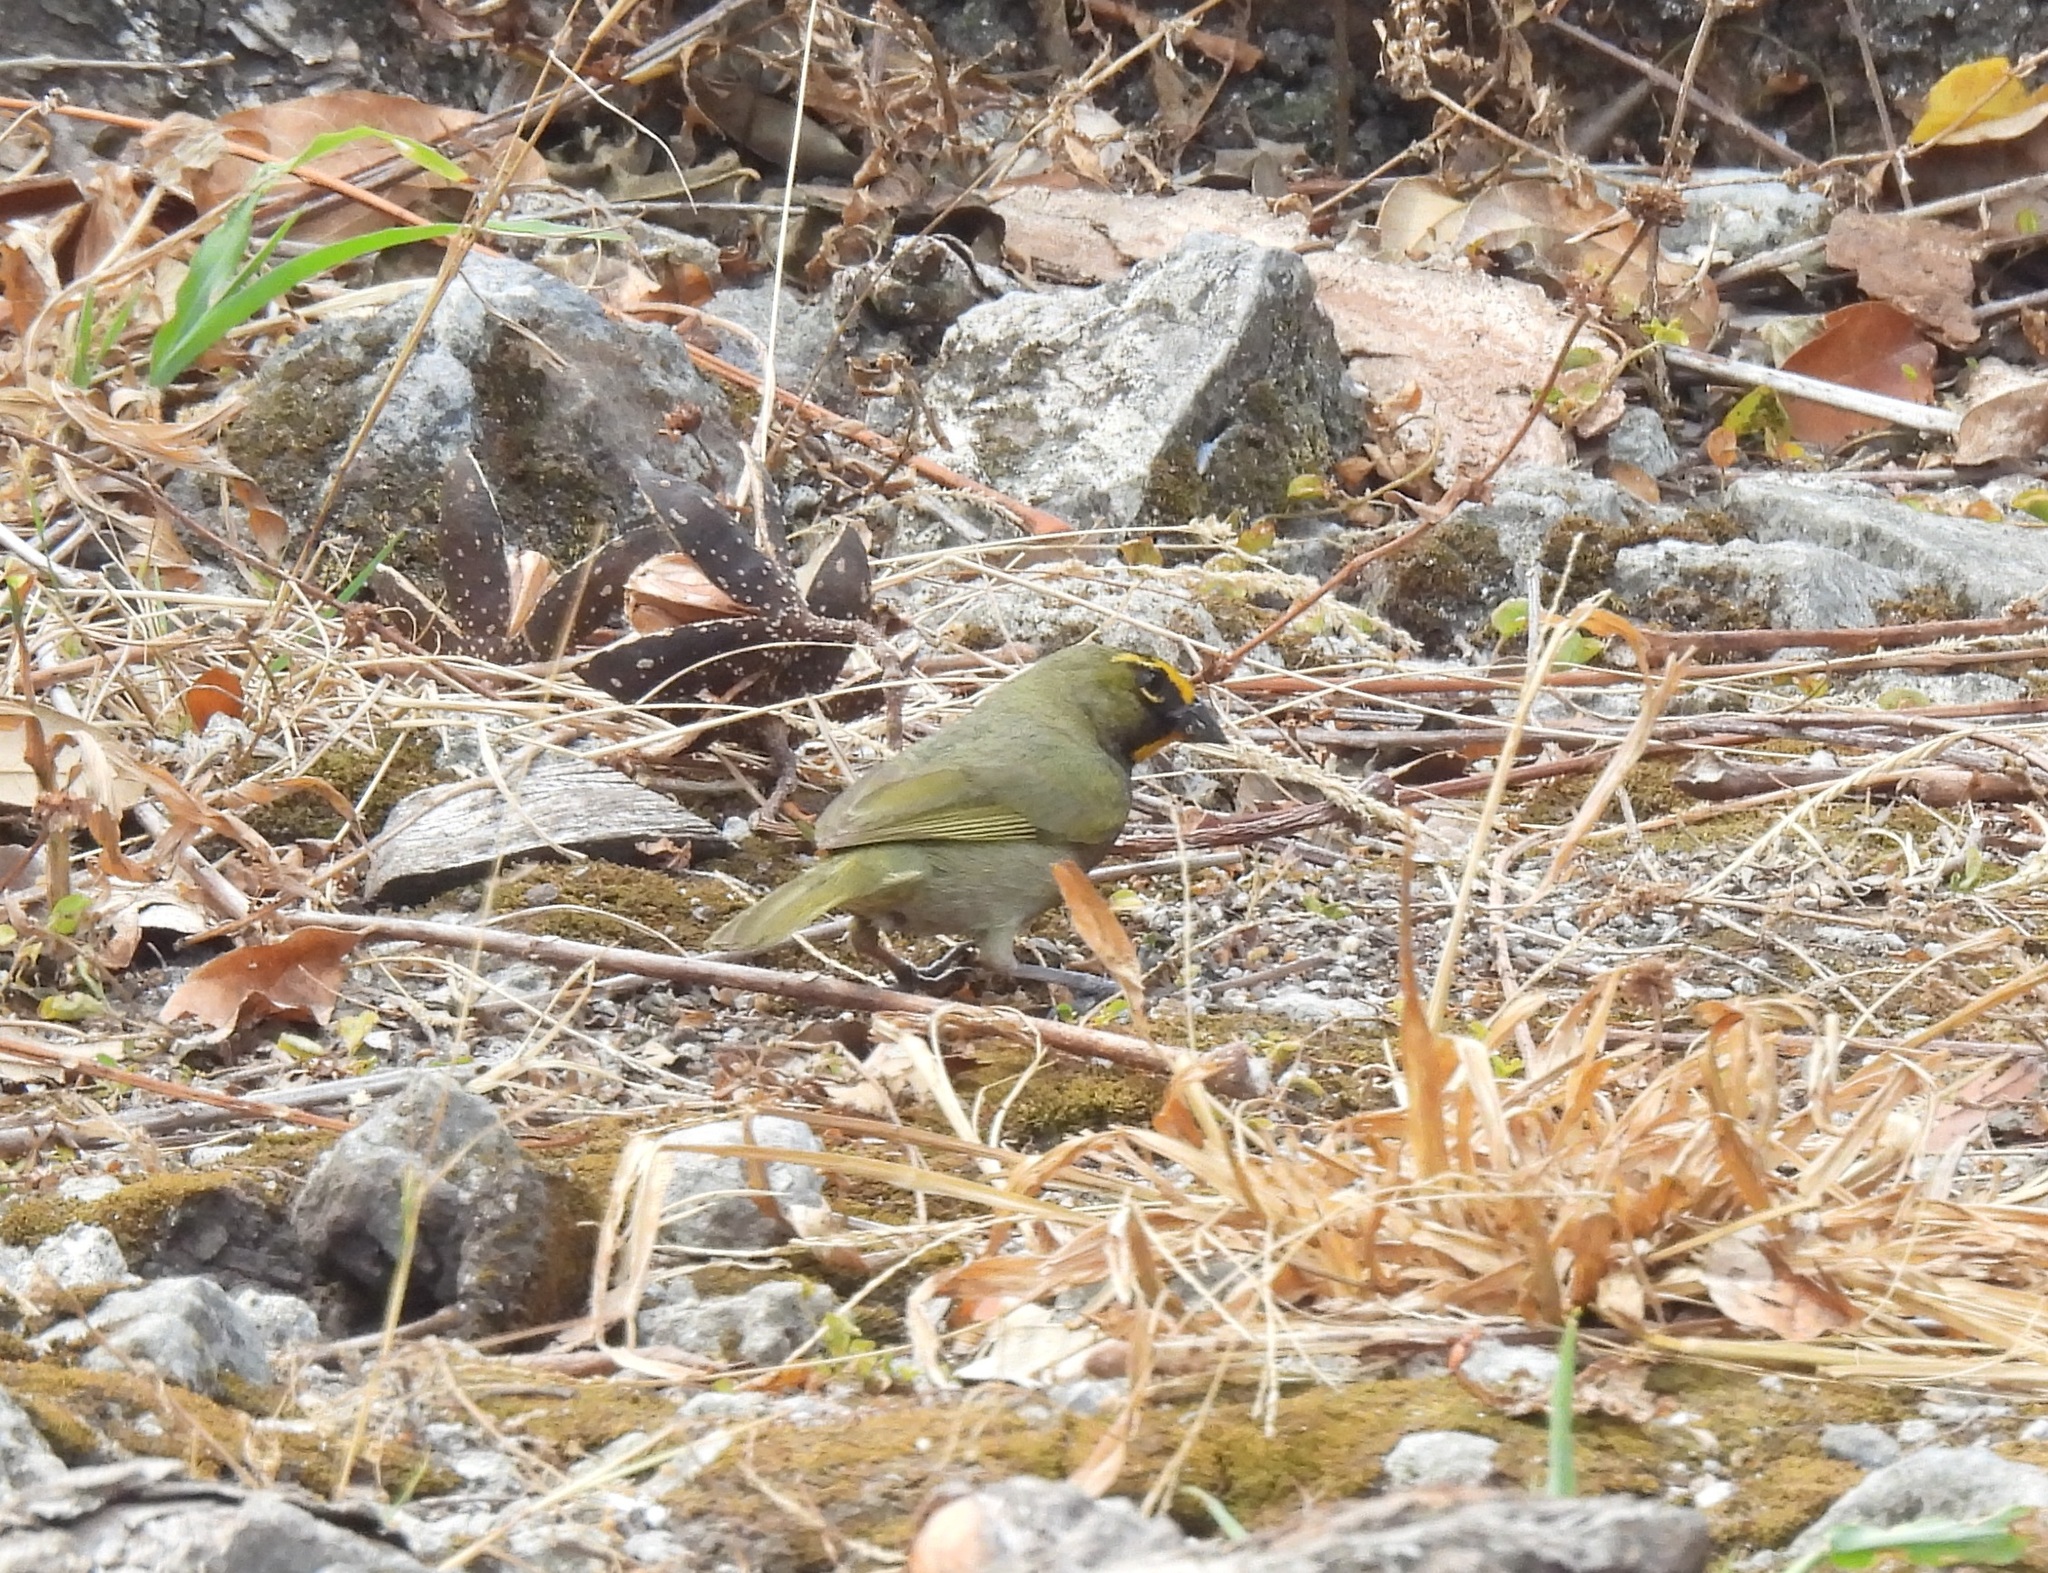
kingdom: Animalia
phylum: Chordata
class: Aves
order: Passeriformes
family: Thraupidae
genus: Tiaris
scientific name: Tiaris olivaceus
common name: Yellow-faced grassquit
